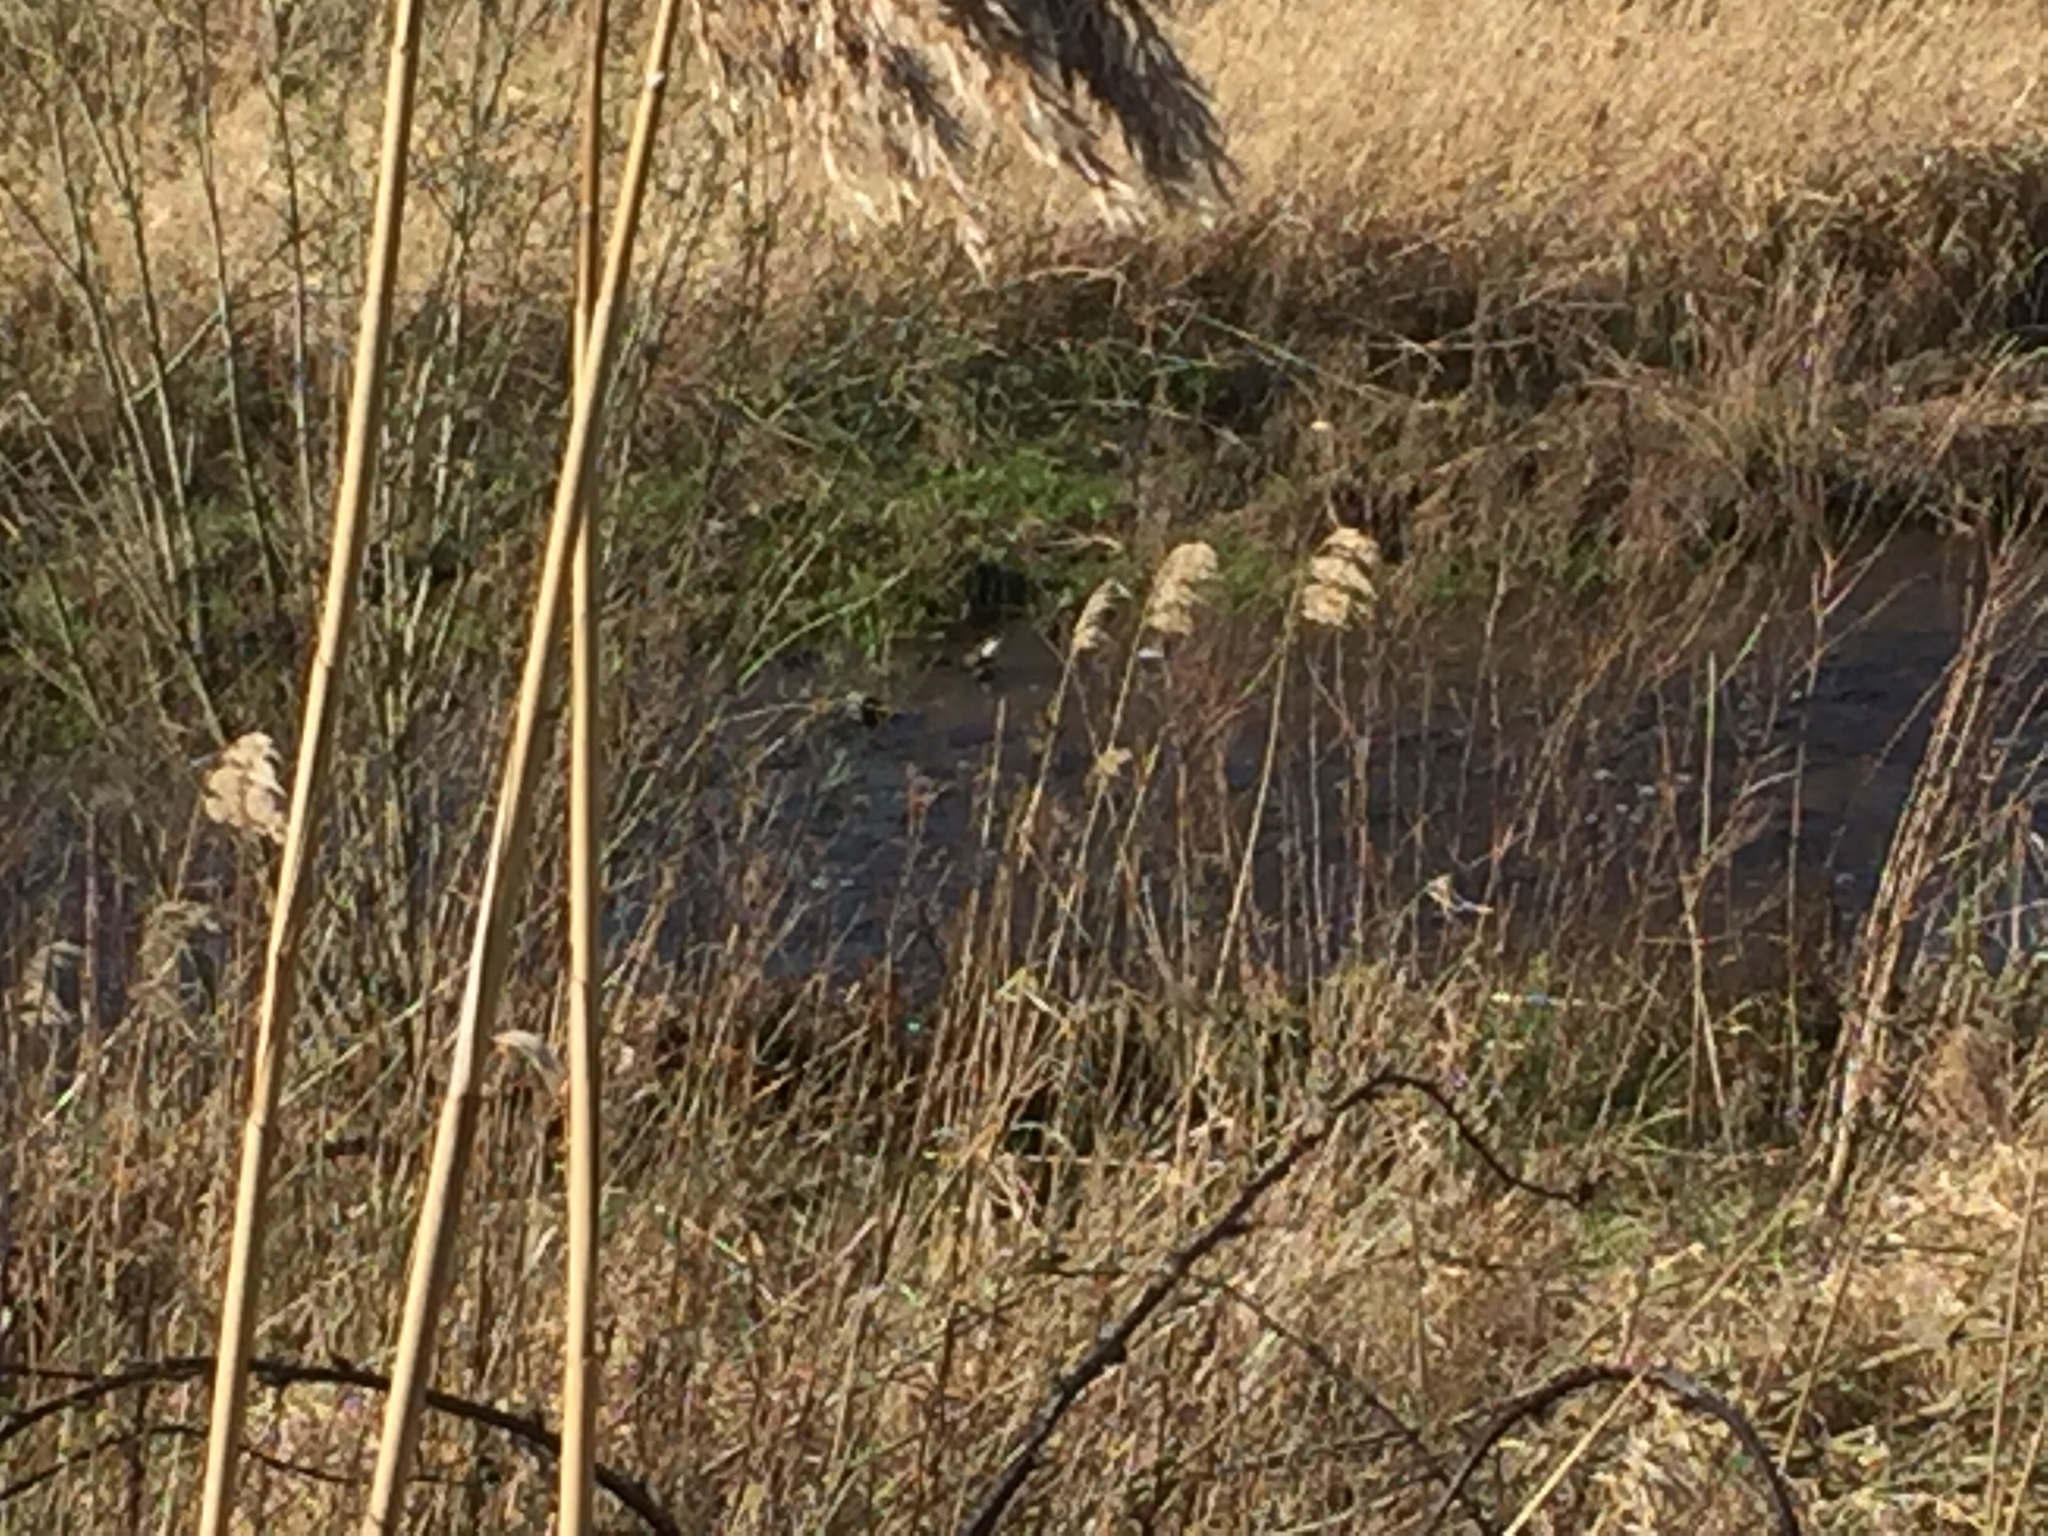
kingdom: Animalia
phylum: Chordata
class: Aves
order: Passeriformes
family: Cinclidae
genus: Cinclus
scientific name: Cinclus cinclus
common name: White-throated dipper
